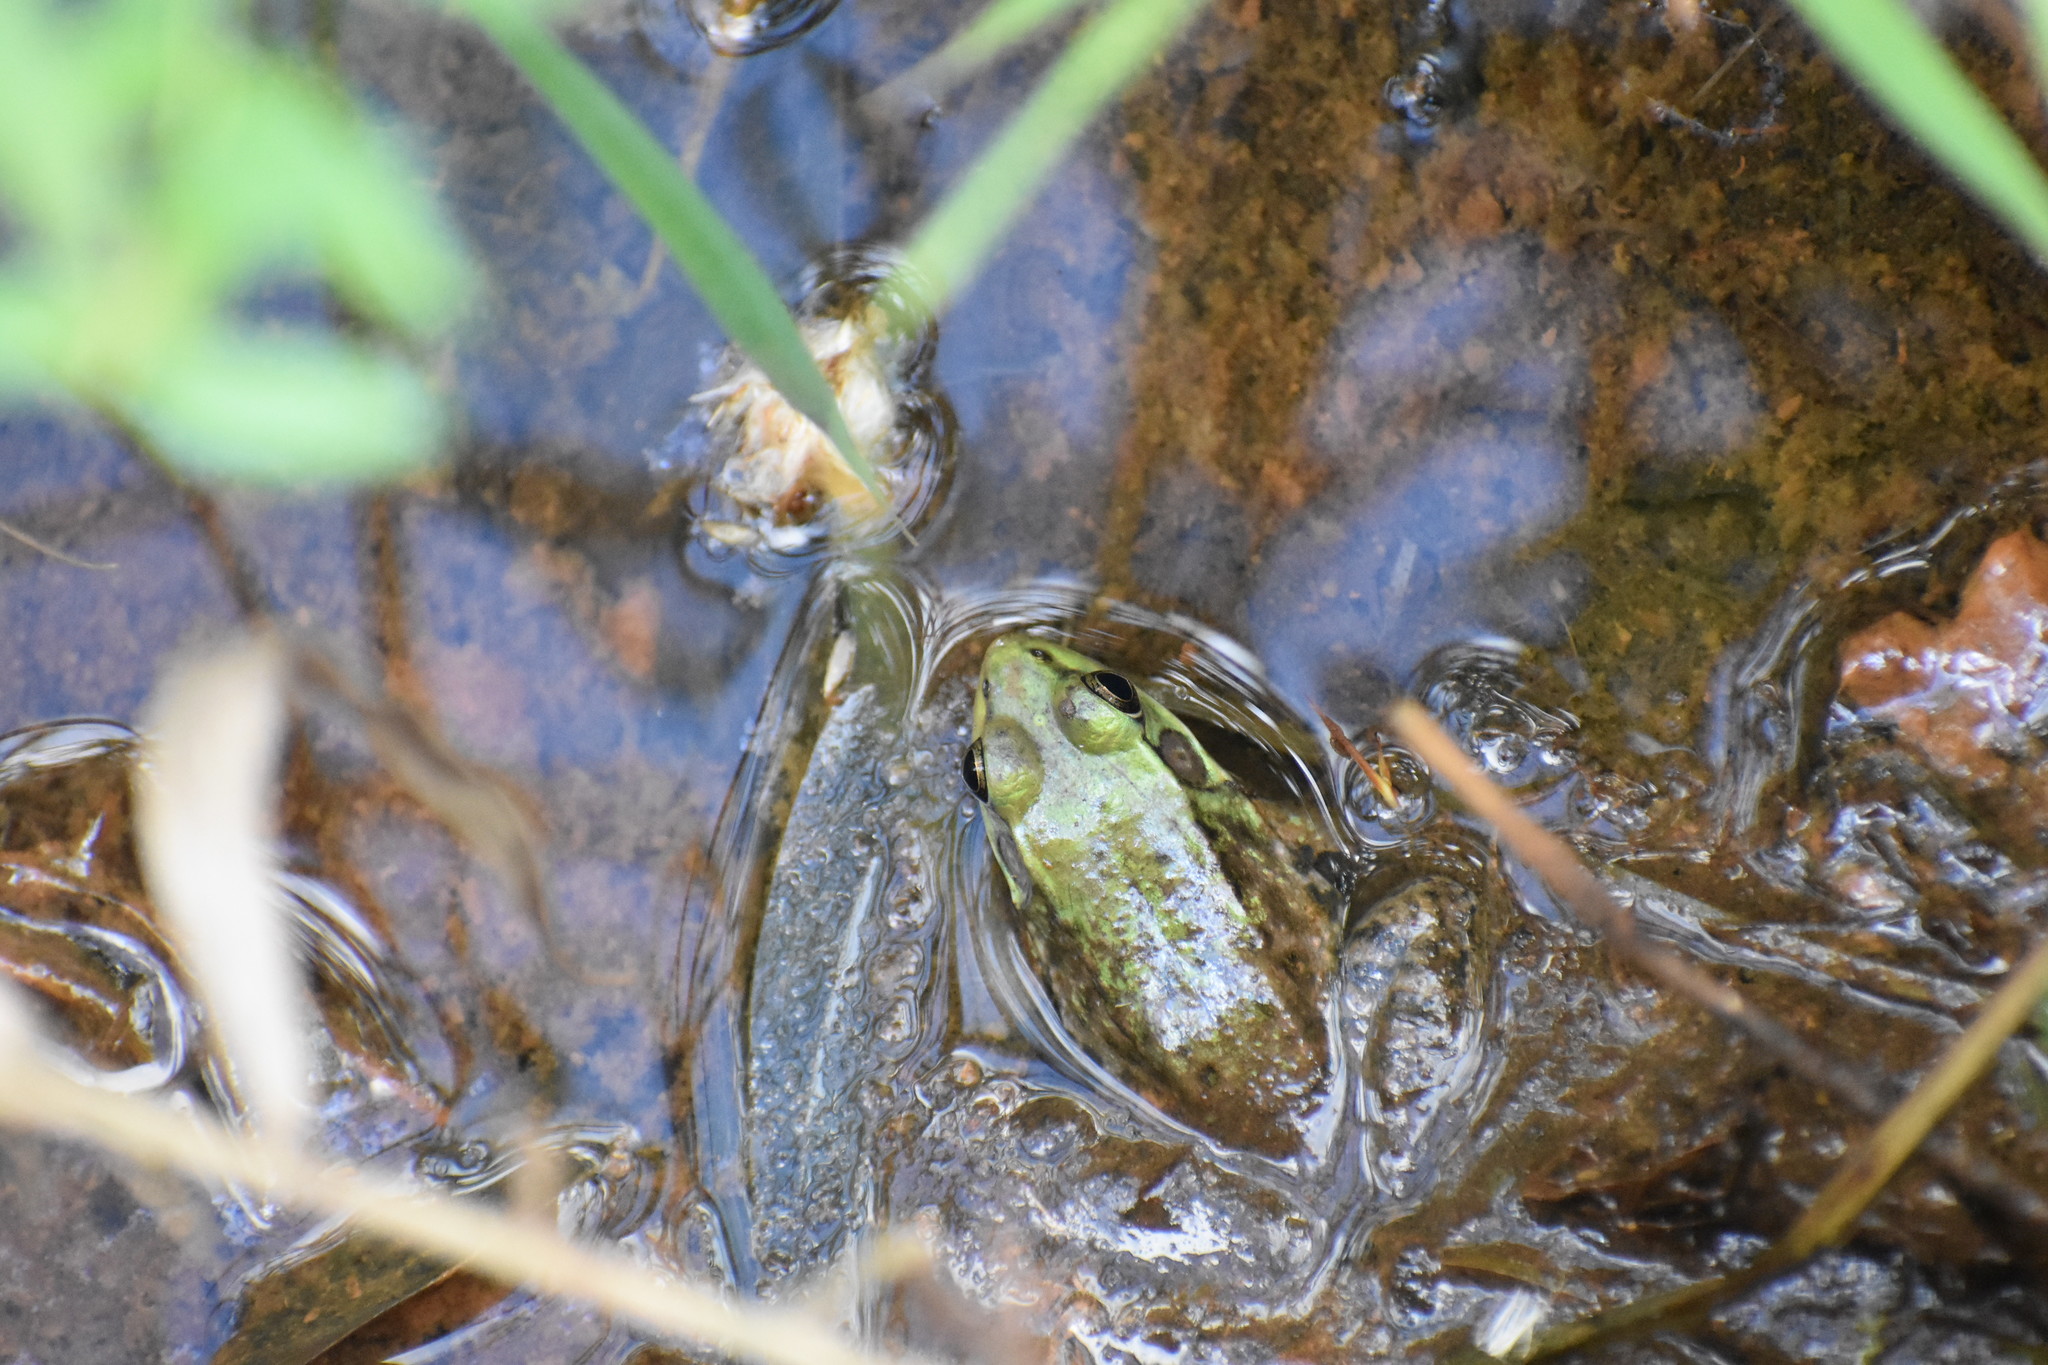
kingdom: Animalia
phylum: Chordata
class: Amphibia
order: Anura
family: Ranidae
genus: Lithobates
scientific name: Lithobates catesbeianus
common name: American bullfrog
